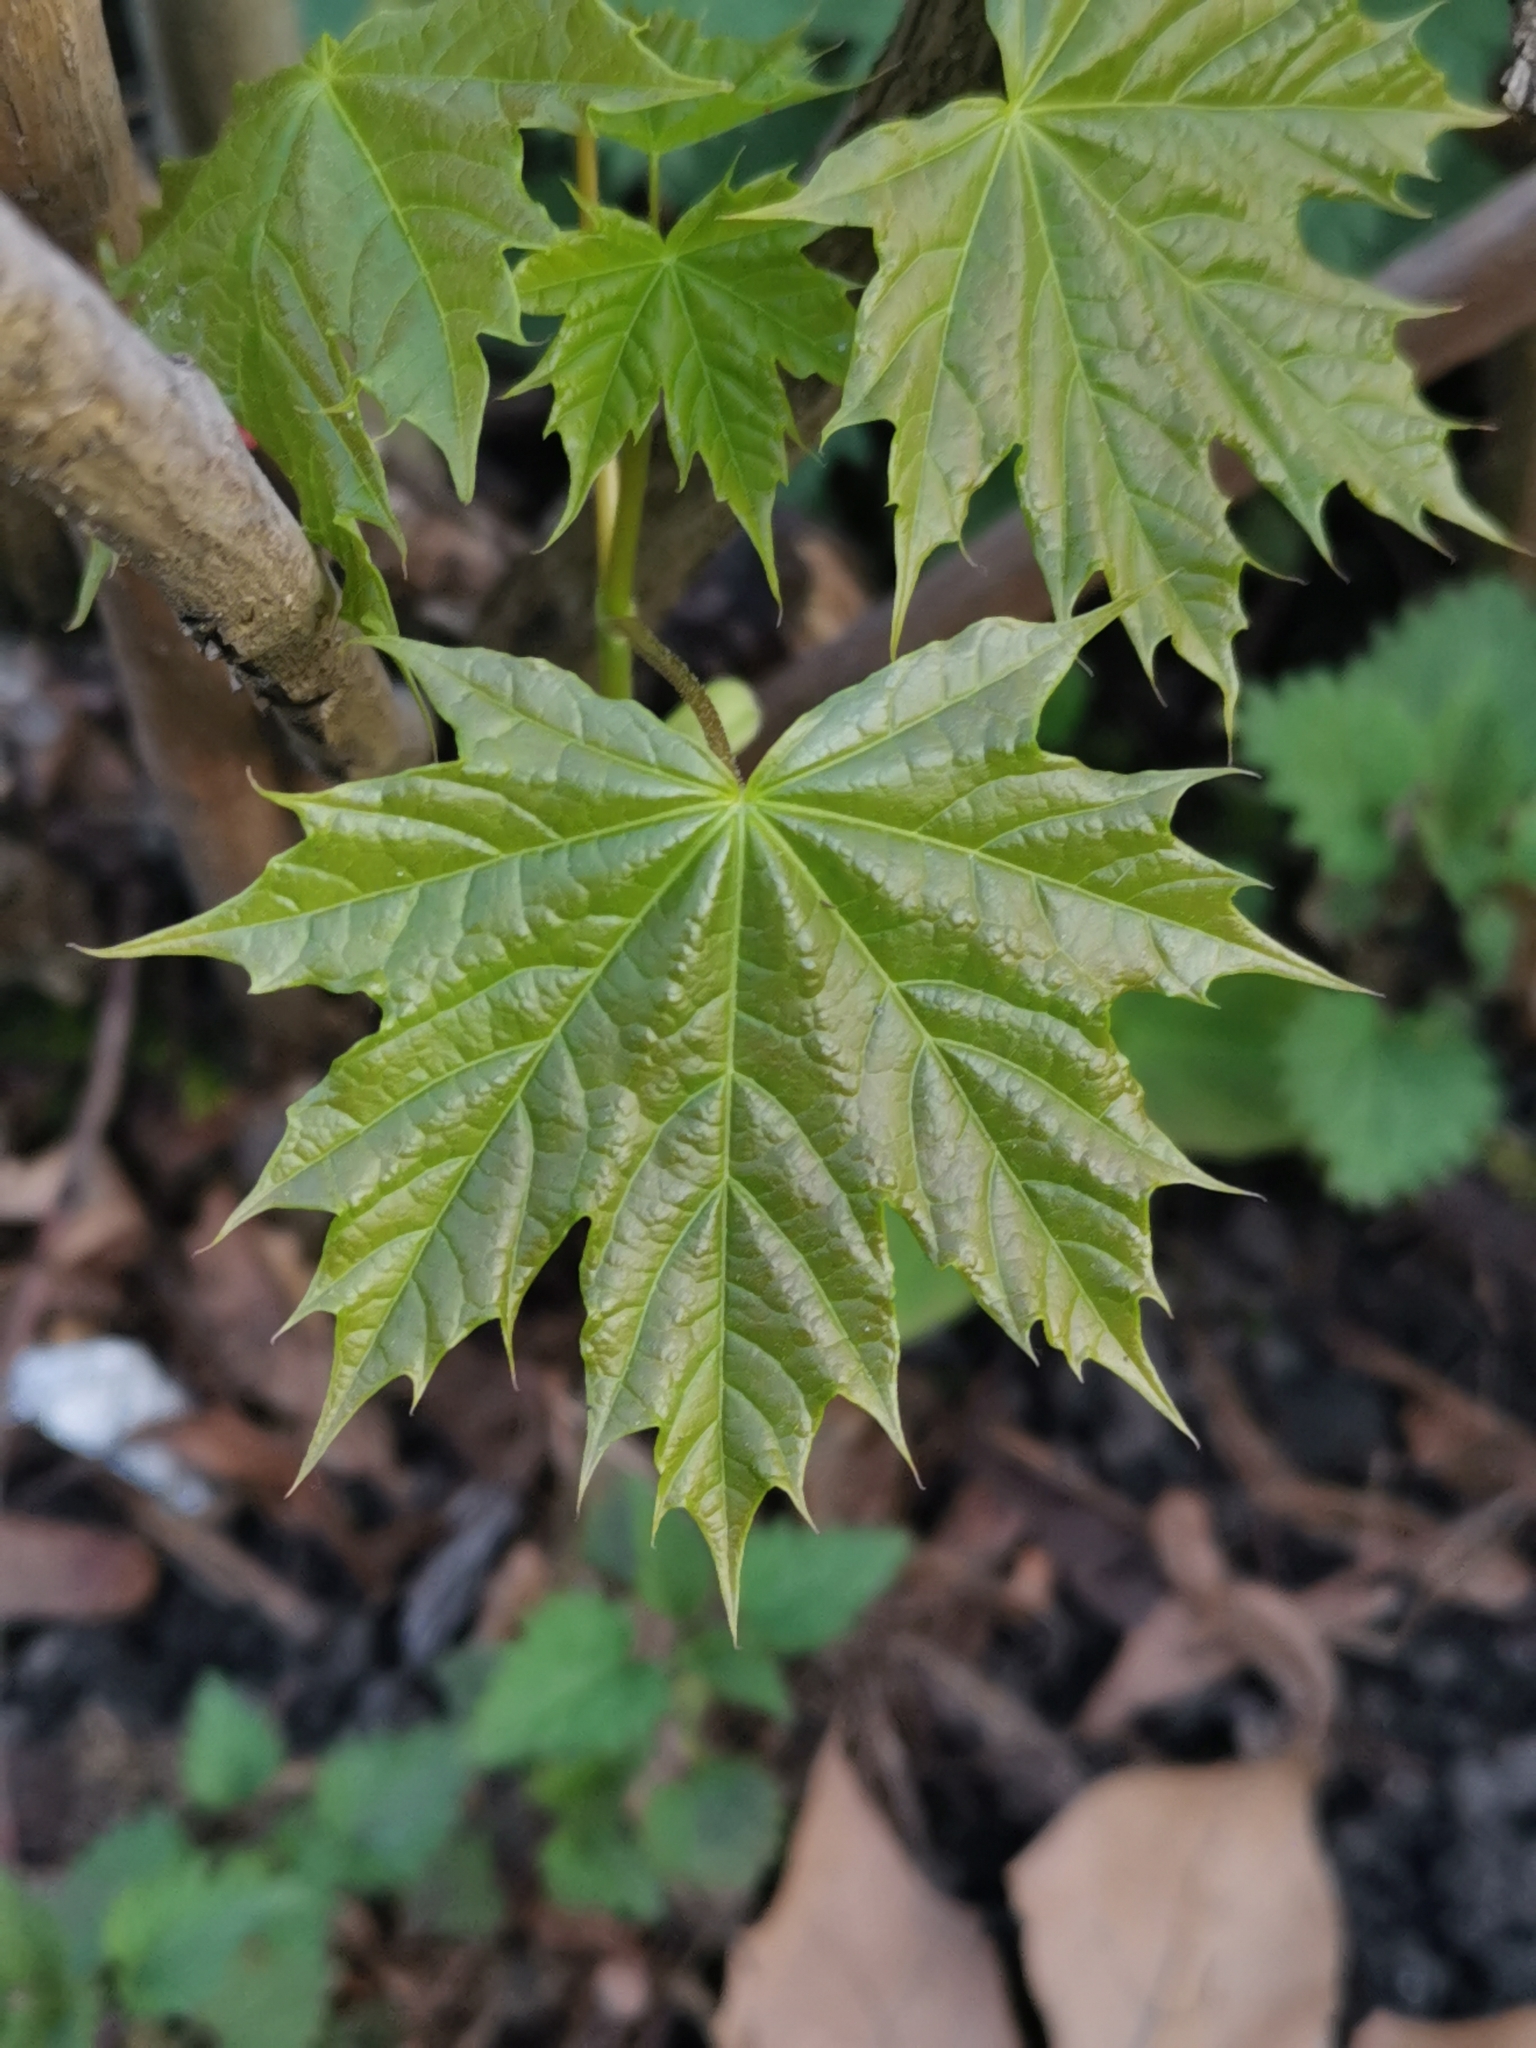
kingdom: Plantae
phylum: Tracheophyta
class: Magnoliopsida
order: Sapindales
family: Sapindaceae
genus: Acer
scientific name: Acer platanoides
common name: Norway maple
